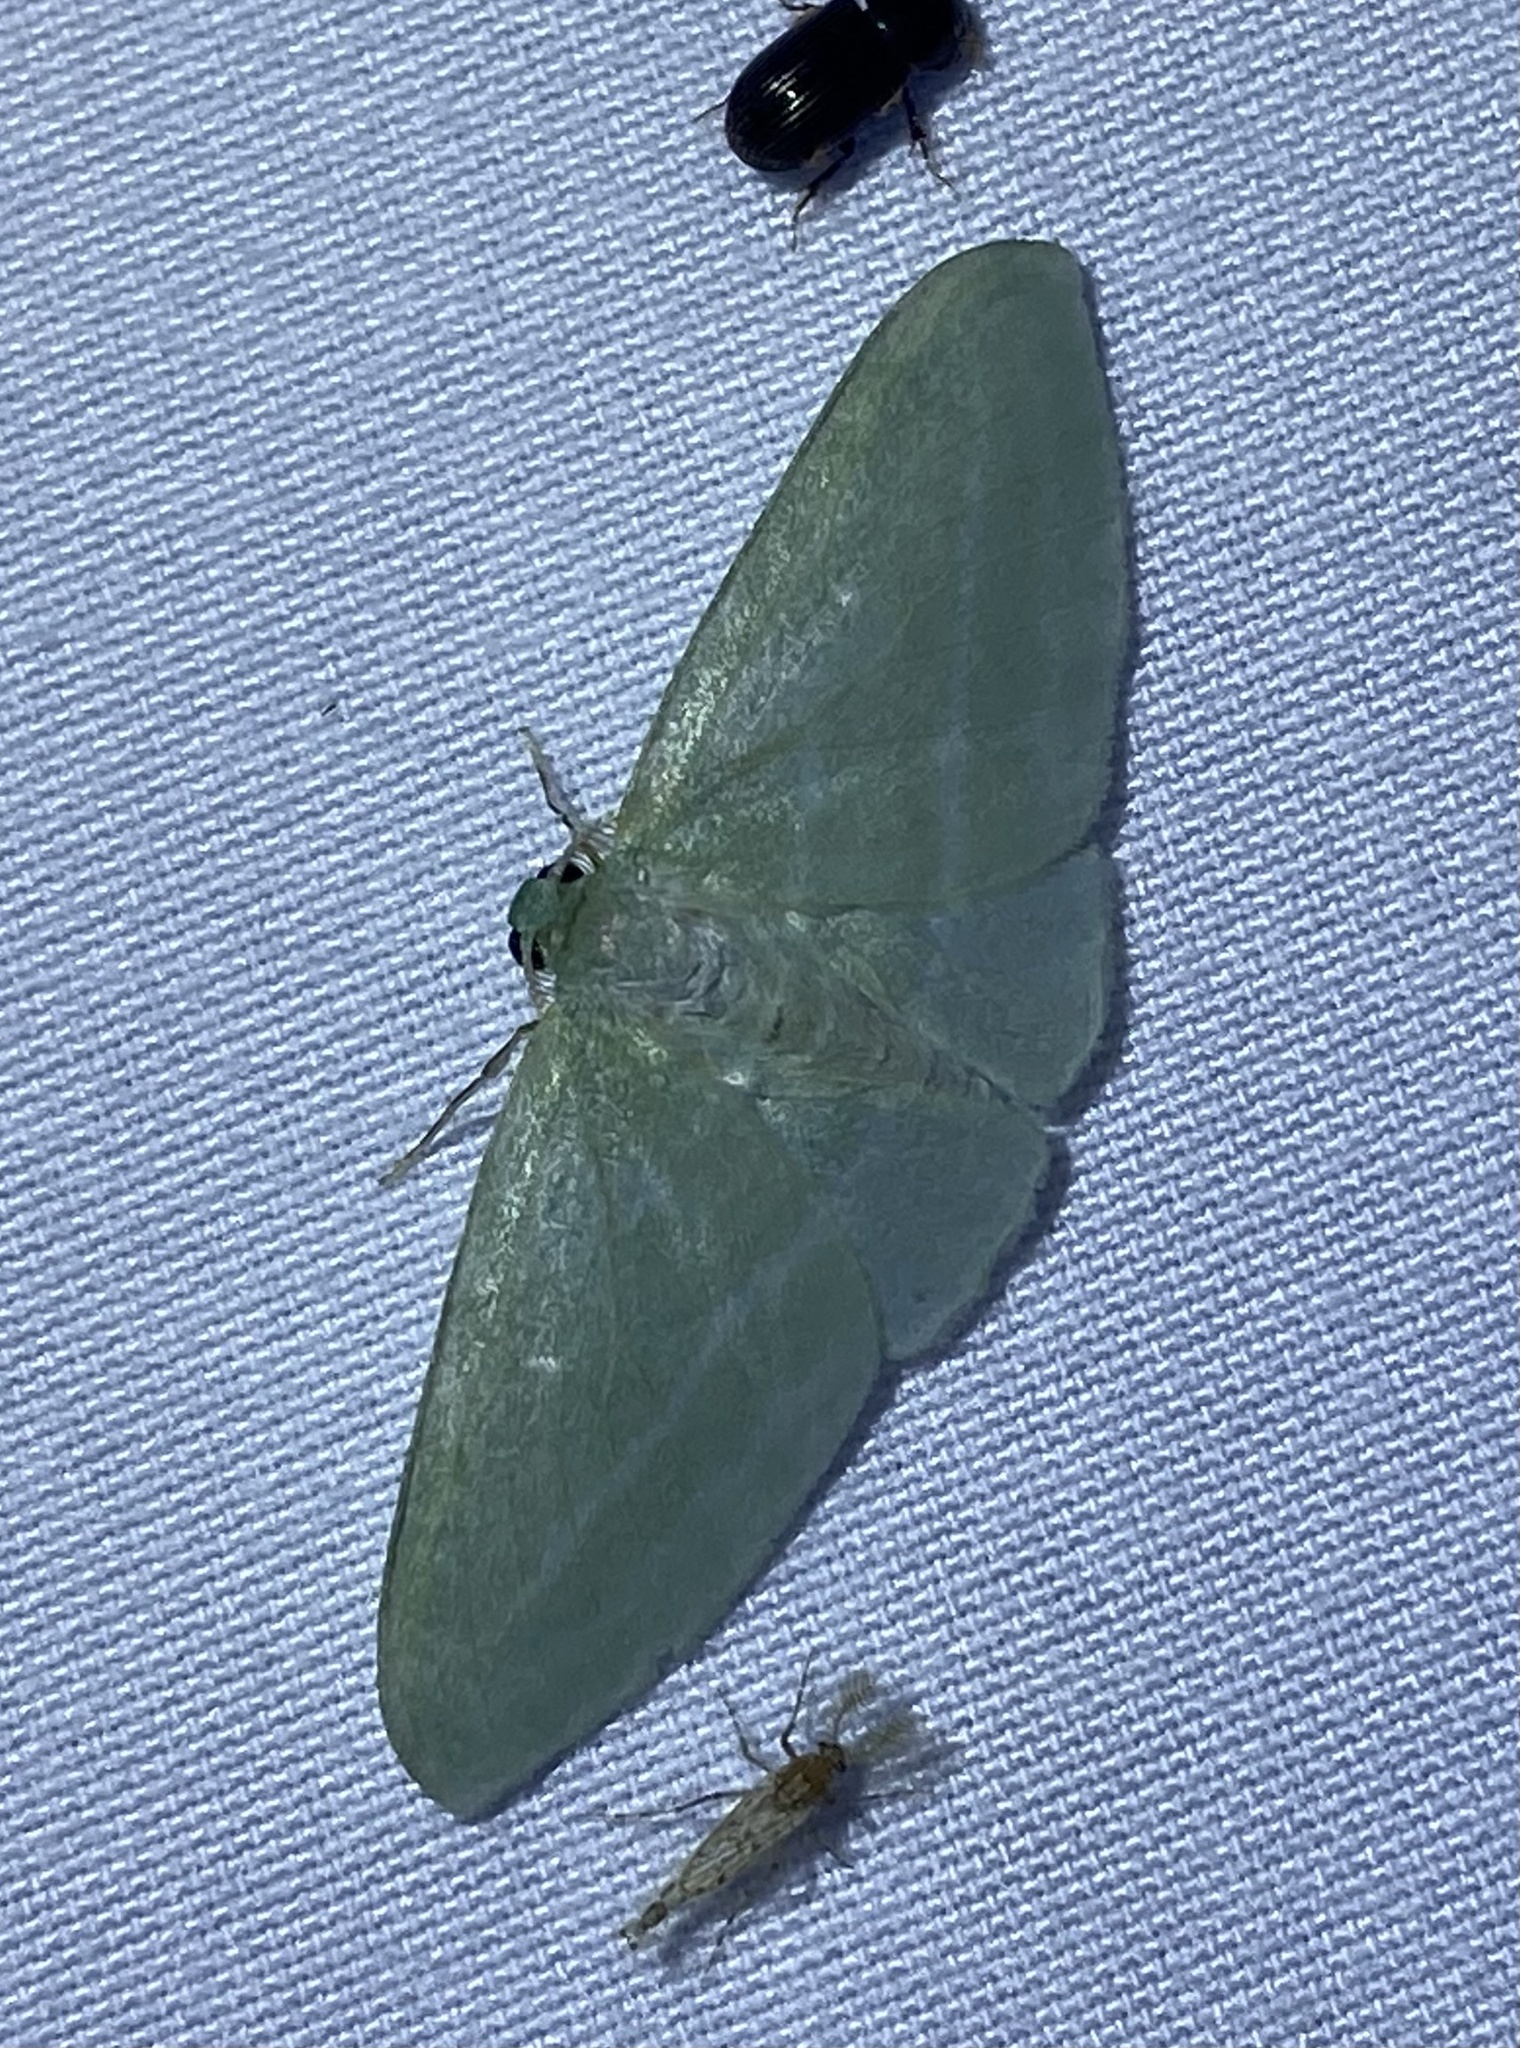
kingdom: Animalia
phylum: Arthropoda
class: Insecta
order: Lepidoptera
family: Geometridae
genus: Dyspteris
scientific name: Dyspteris abortivaria
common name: Bad-wing
